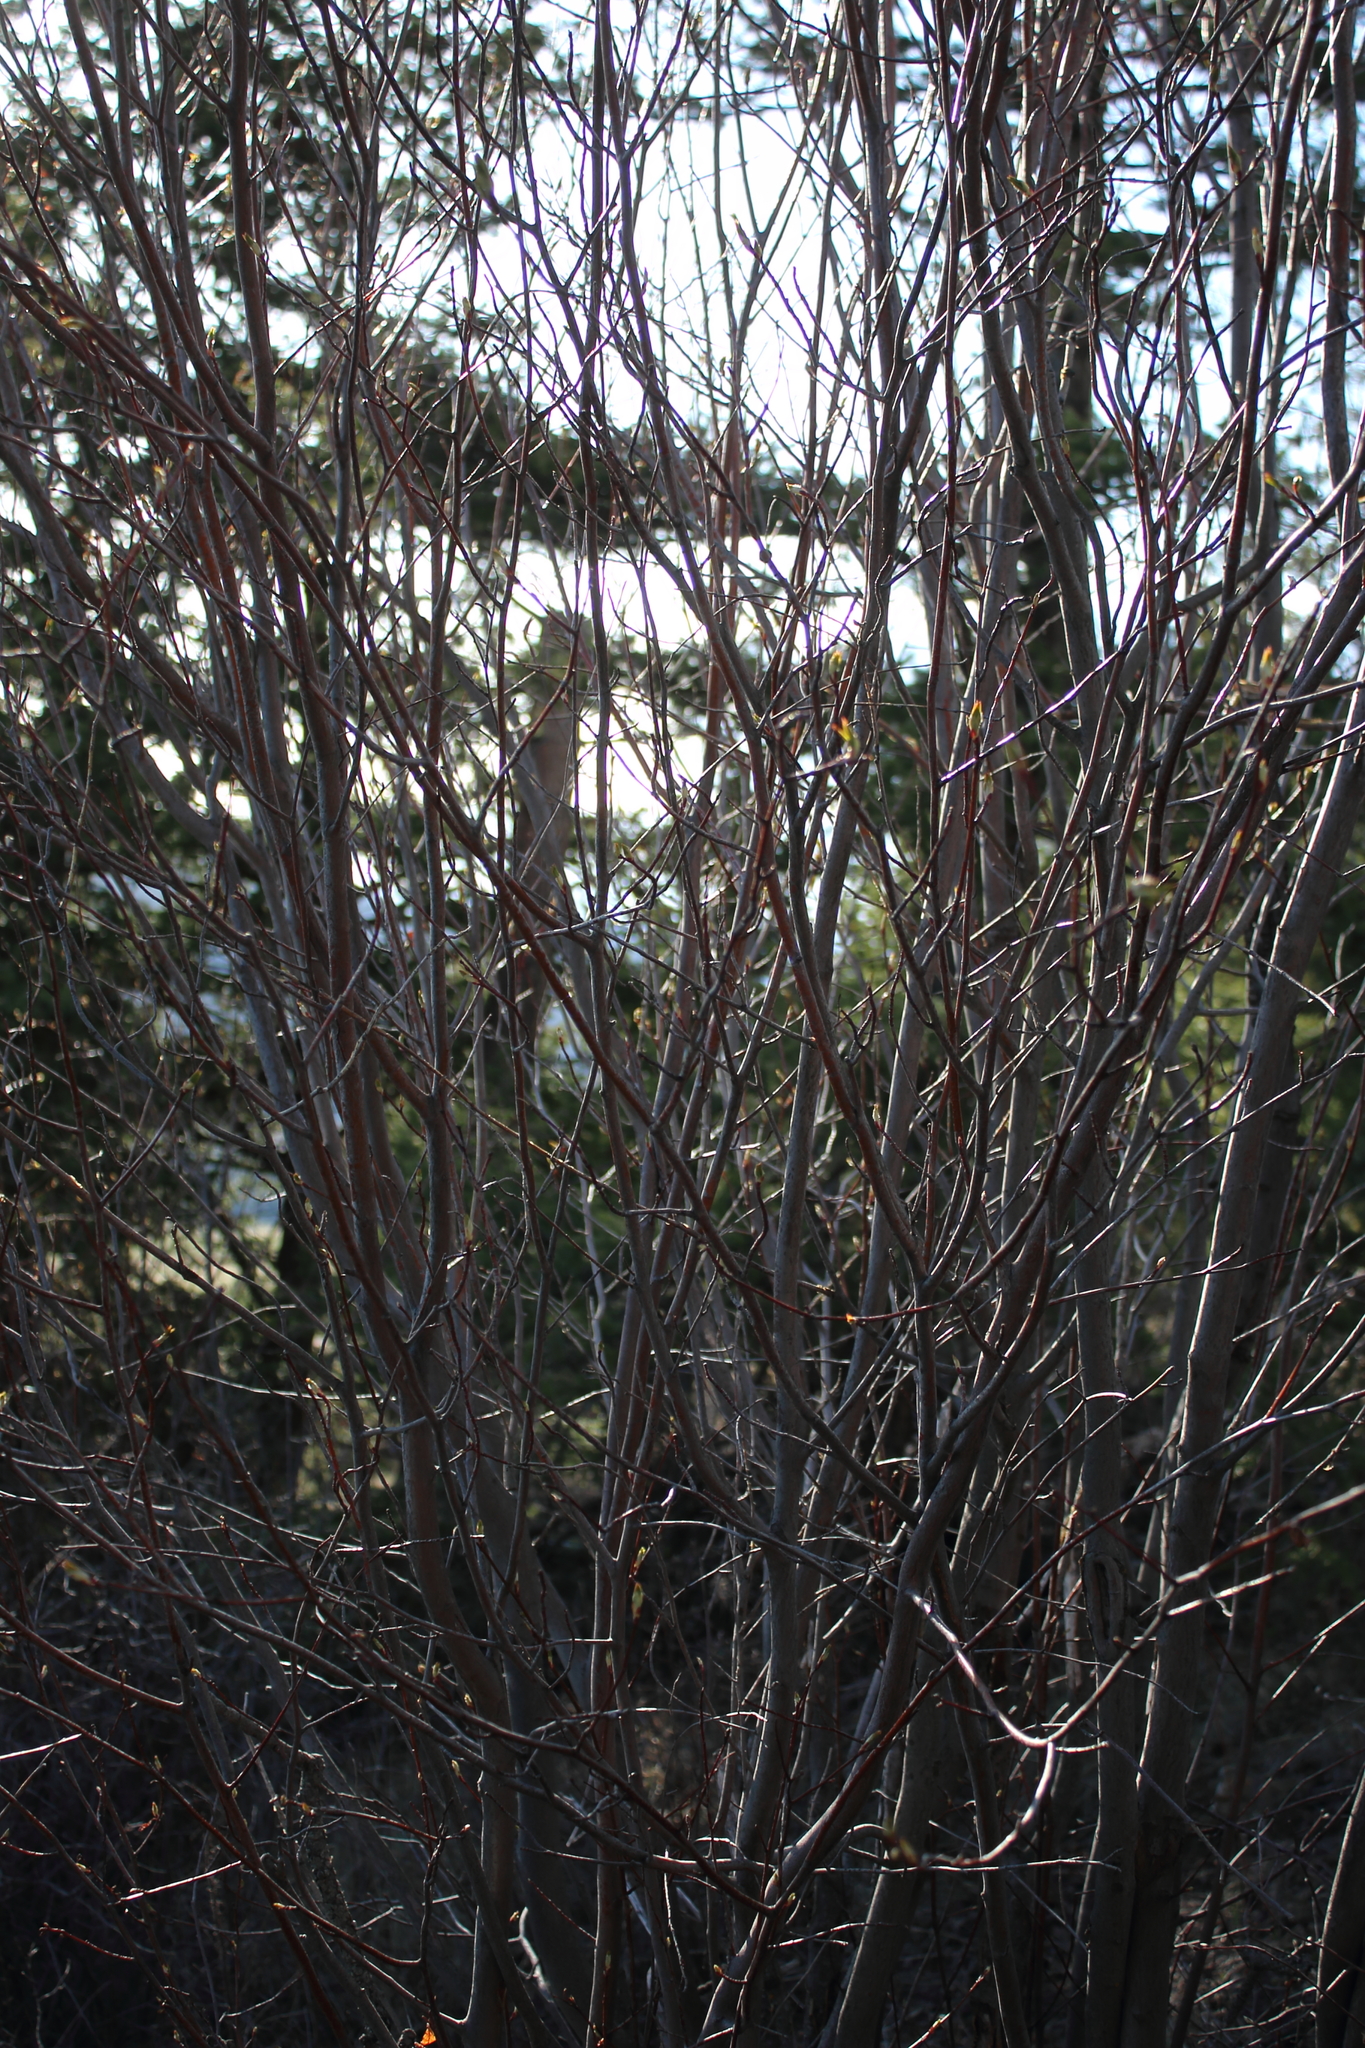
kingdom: Plantae
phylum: Tracheophyta
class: Magnoliopsida
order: Rosales
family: Rosaceae
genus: Amelanchier
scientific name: Amelanchier alnifolia
